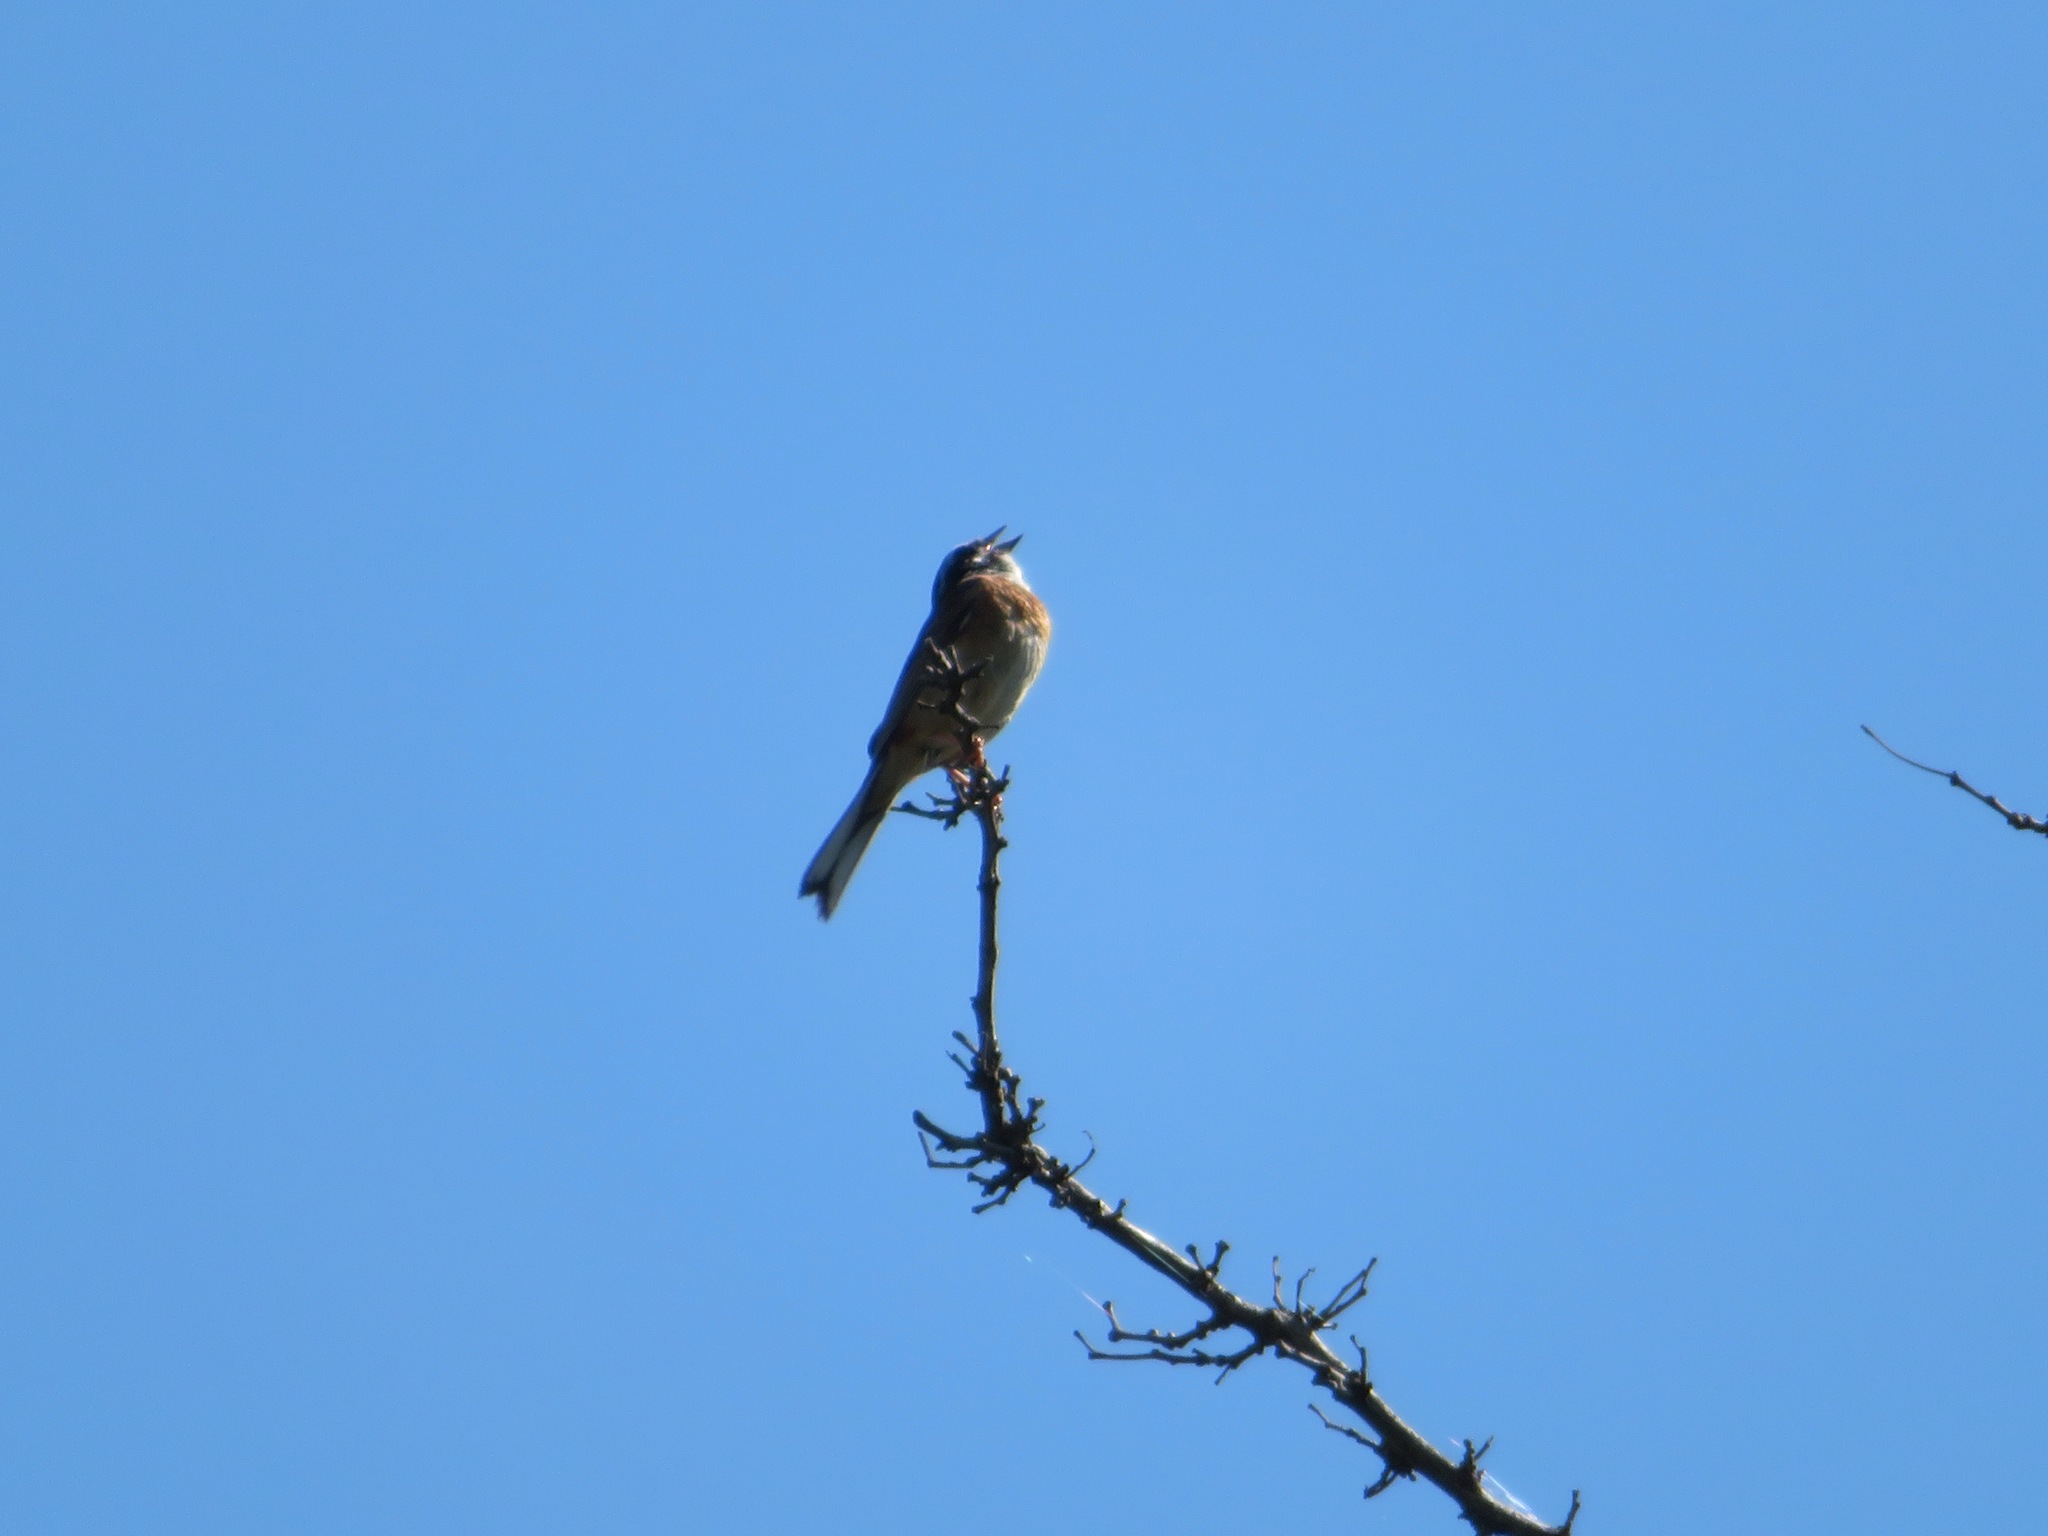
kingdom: Animalia
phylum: Chordata
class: Aves
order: Passeriformes
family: Emberizidae
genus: Emberiza
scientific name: Emberiza cioides
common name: Meadow bunting
